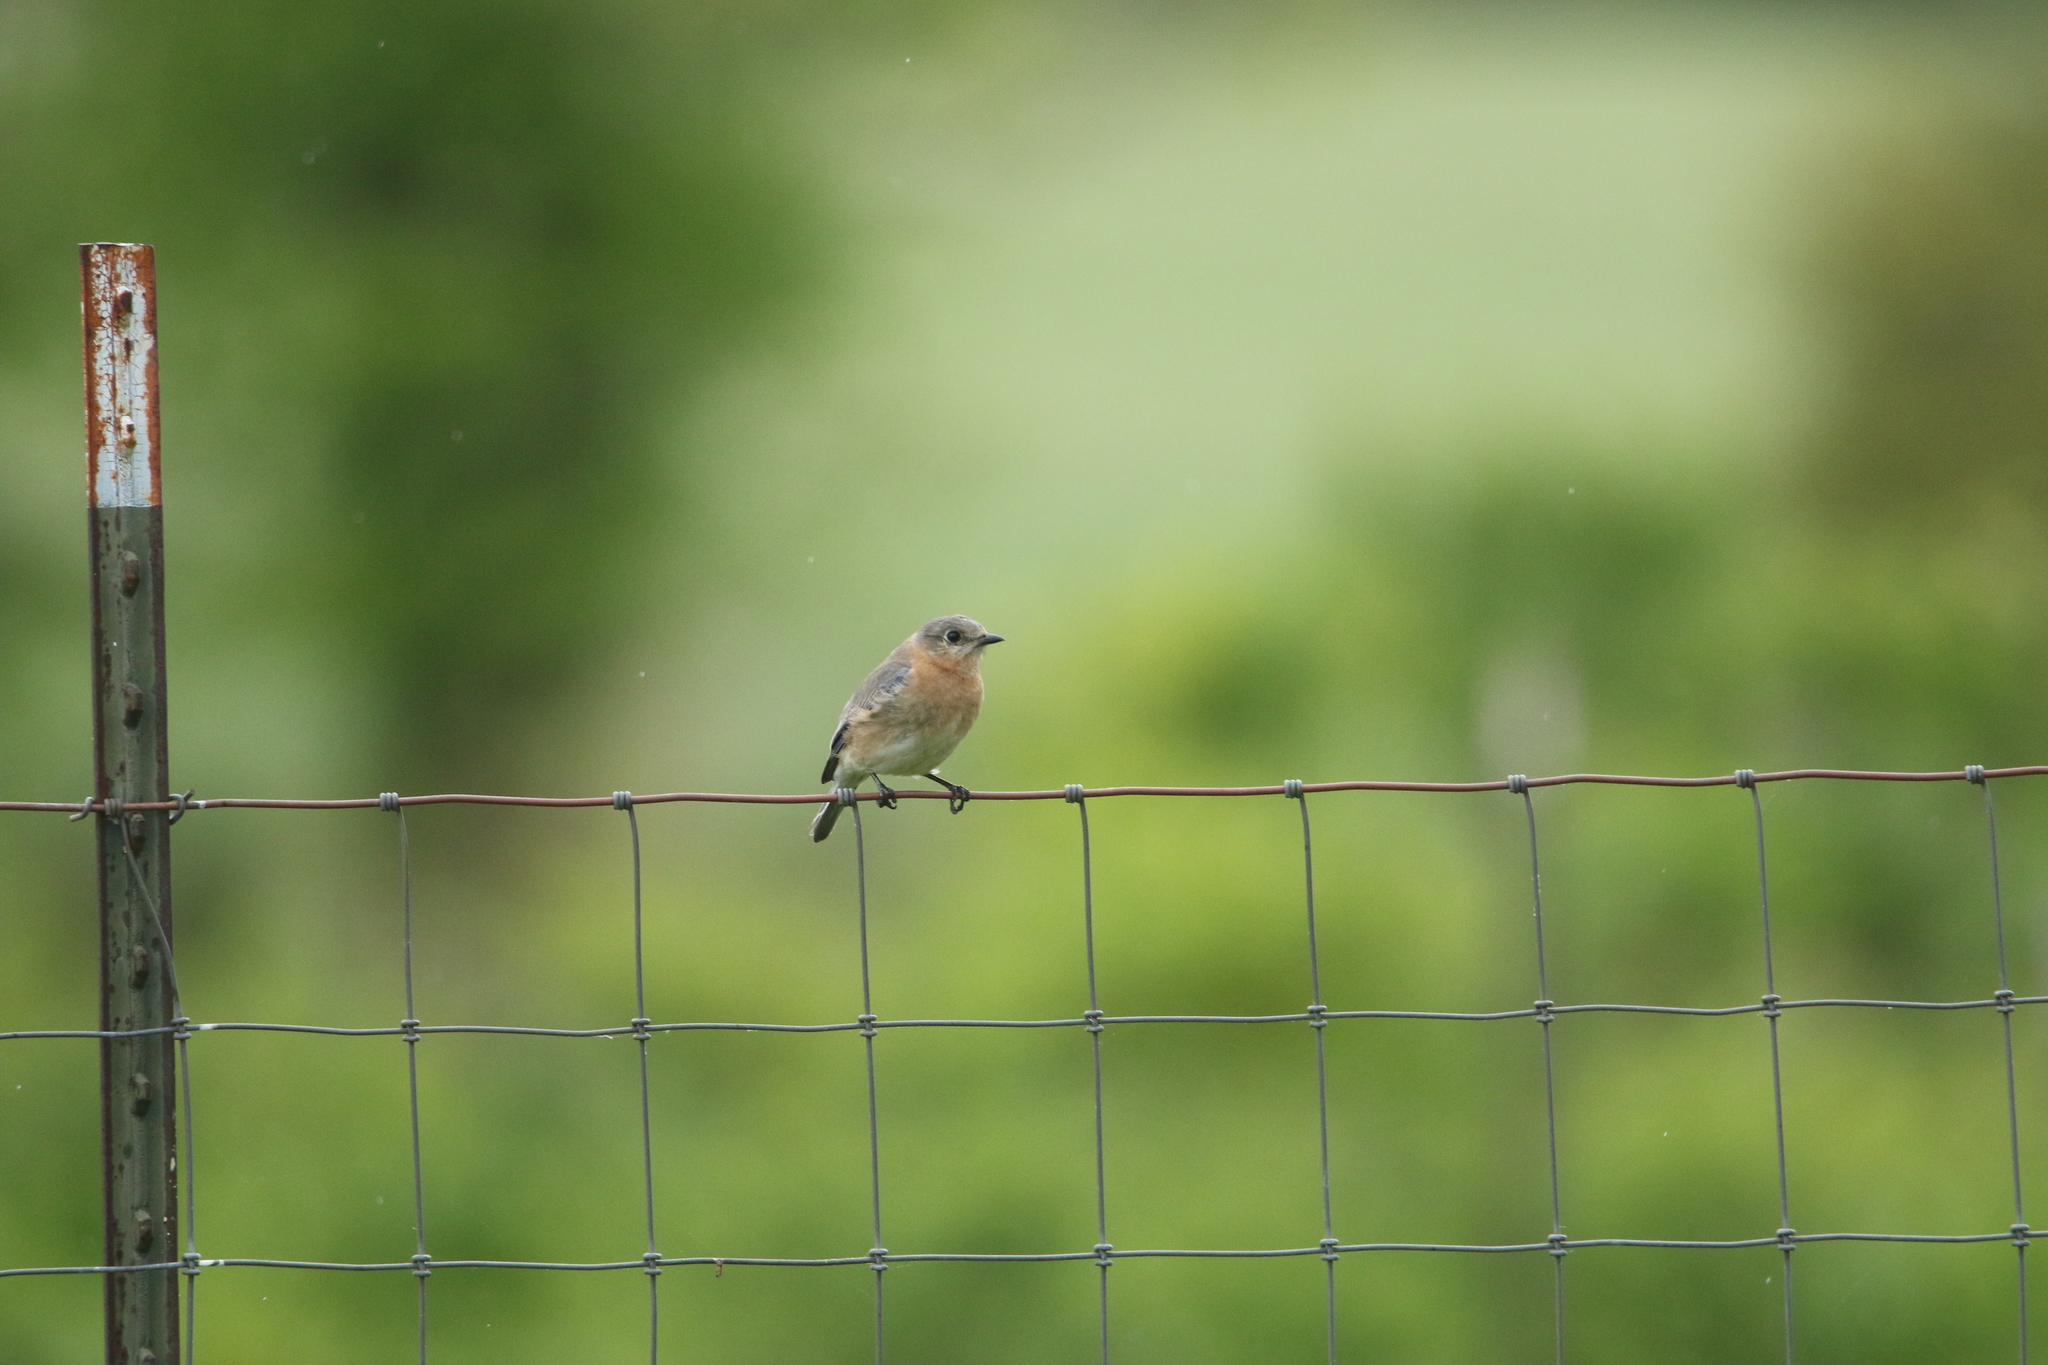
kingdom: Animalia
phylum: Chordata
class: Aves
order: Passeriformes
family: Turdidae
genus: Sialia
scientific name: Sialia sialis
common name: Eastern bluebird
